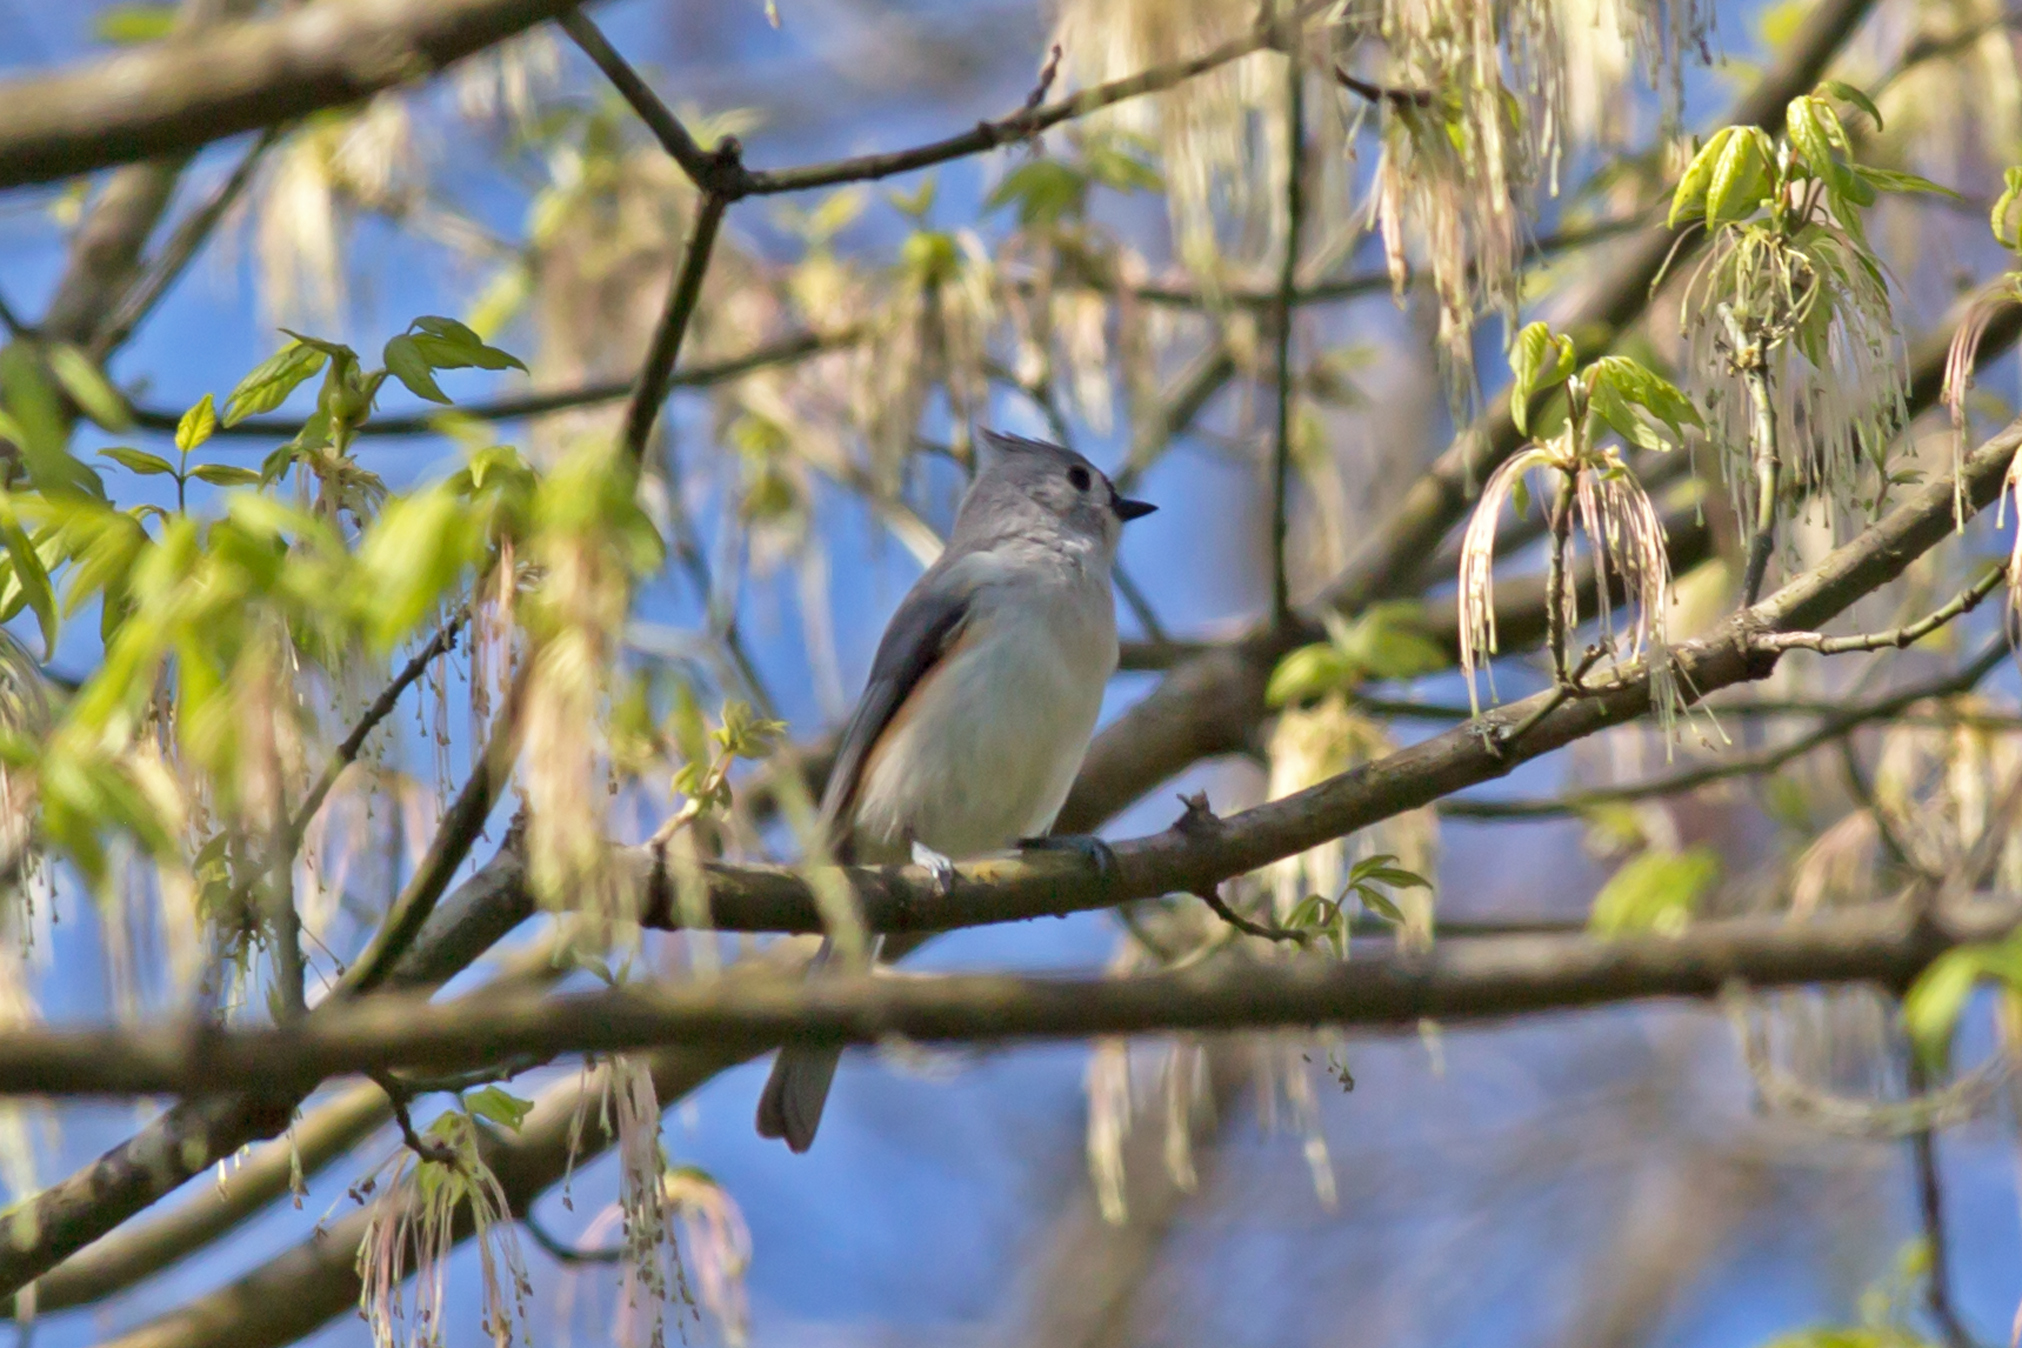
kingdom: Animalia
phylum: Chordata
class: Aves
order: Passeriformes
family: Paridae
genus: Baeolophus
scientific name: Baeolophus bicolor
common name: Tufted titmouse
